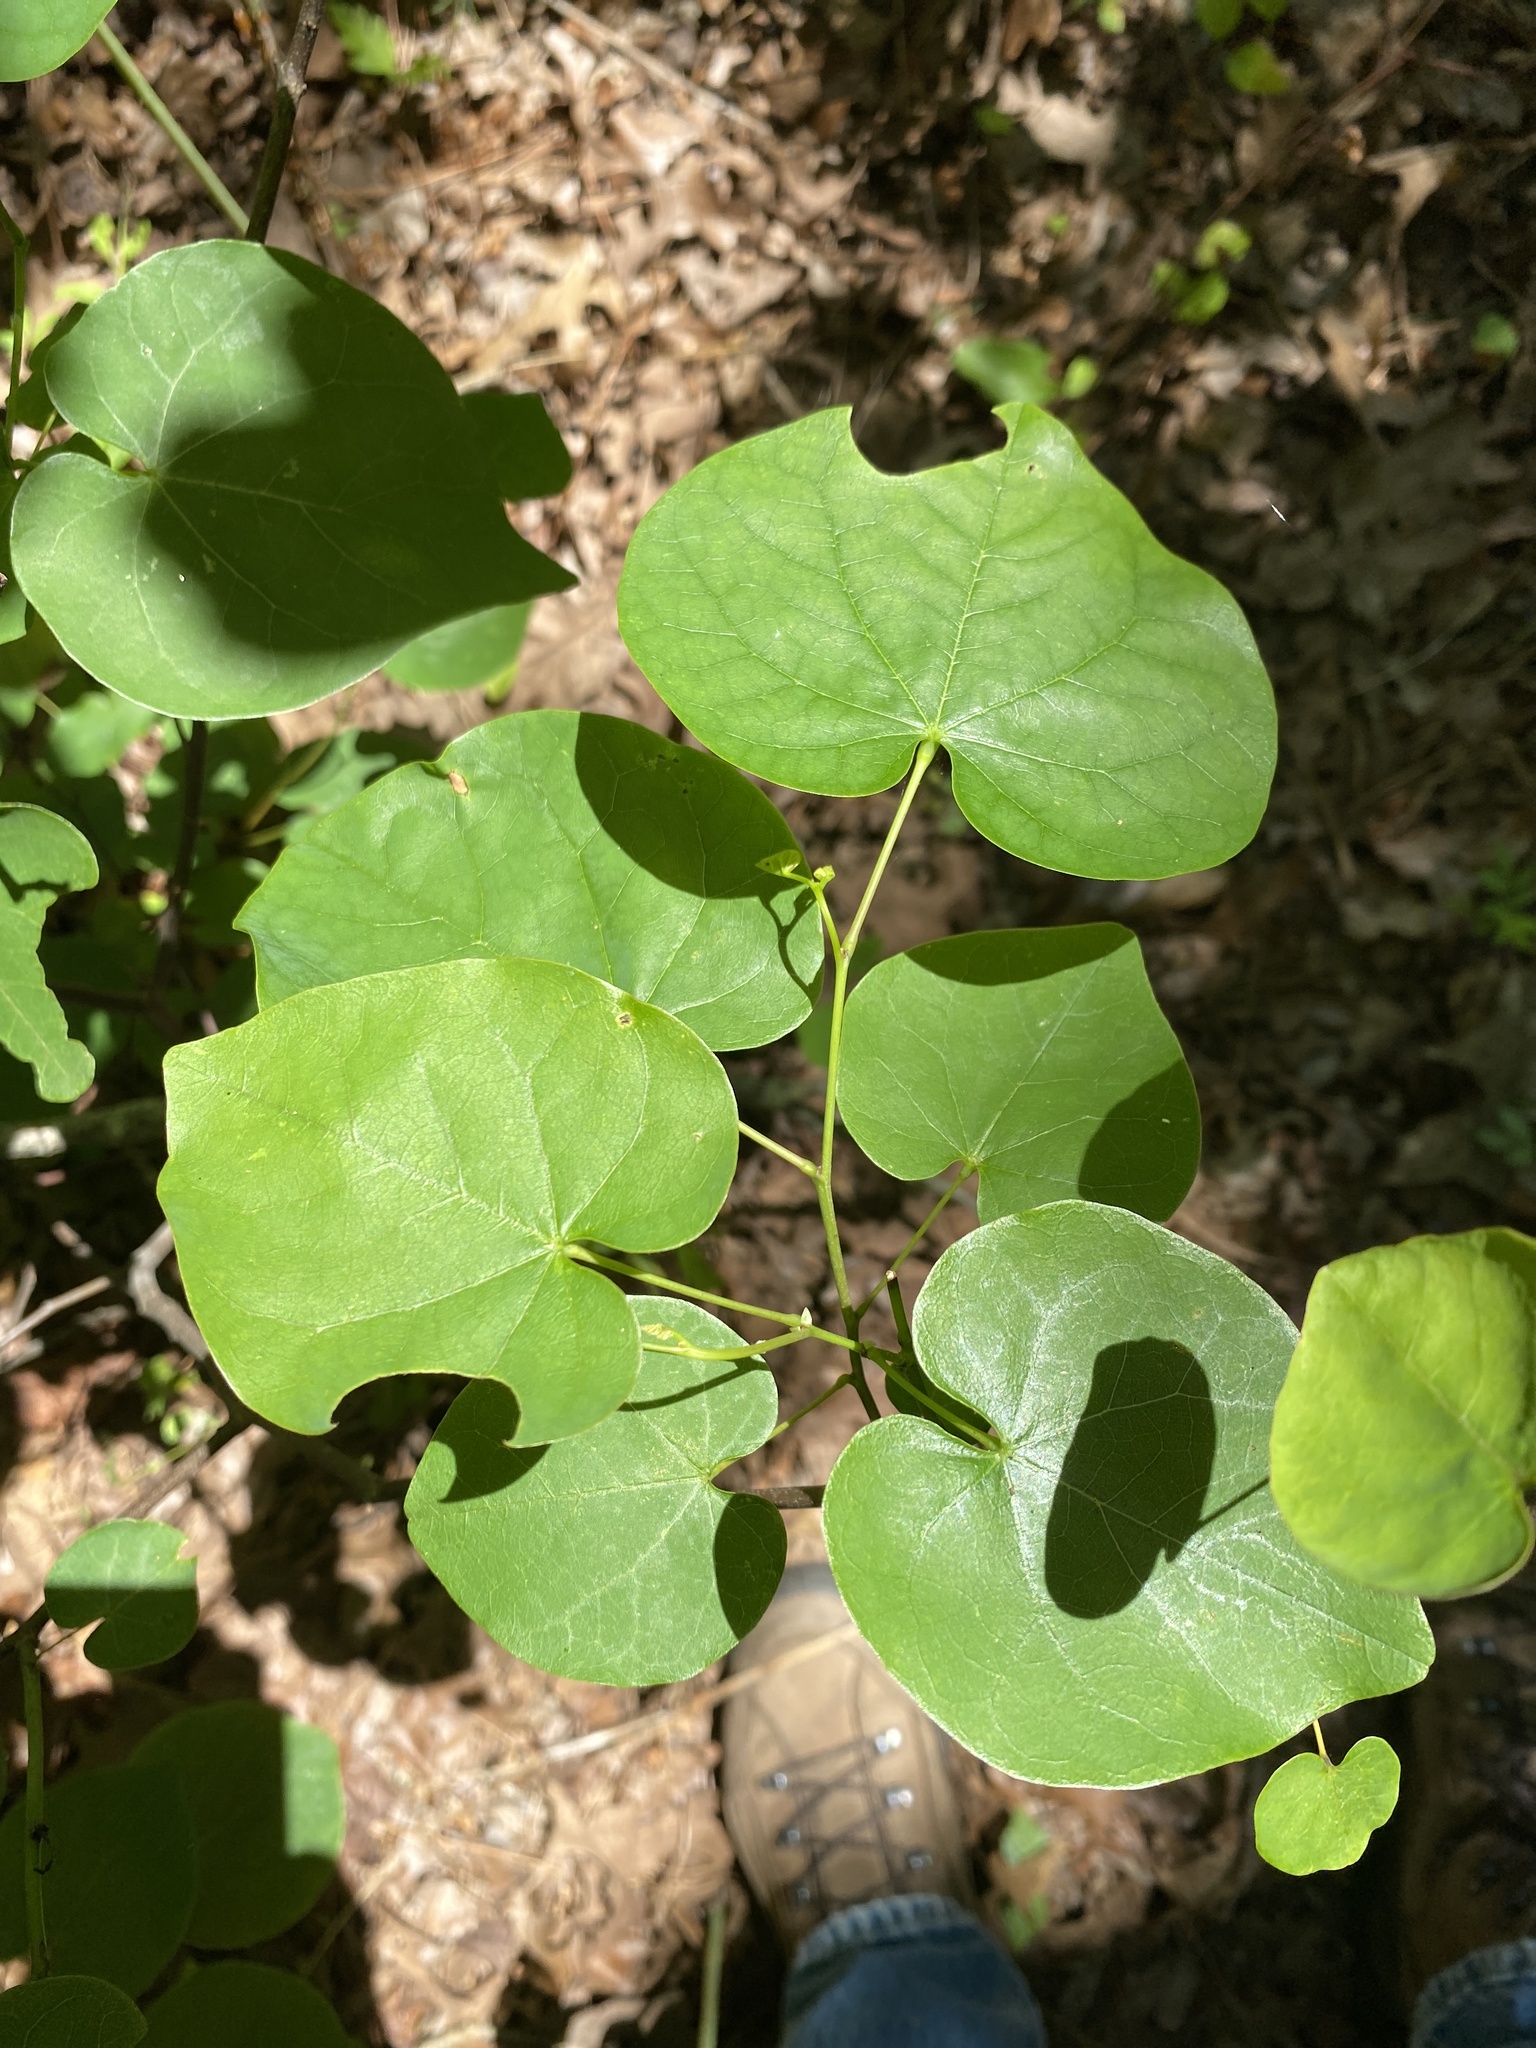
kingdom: Plantae
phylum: Tracheophyta
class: Magnoliopsida
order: Fabales
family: Fabaceae
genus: Cercis
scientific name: Cercis canadensis
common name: Eastern redbud
